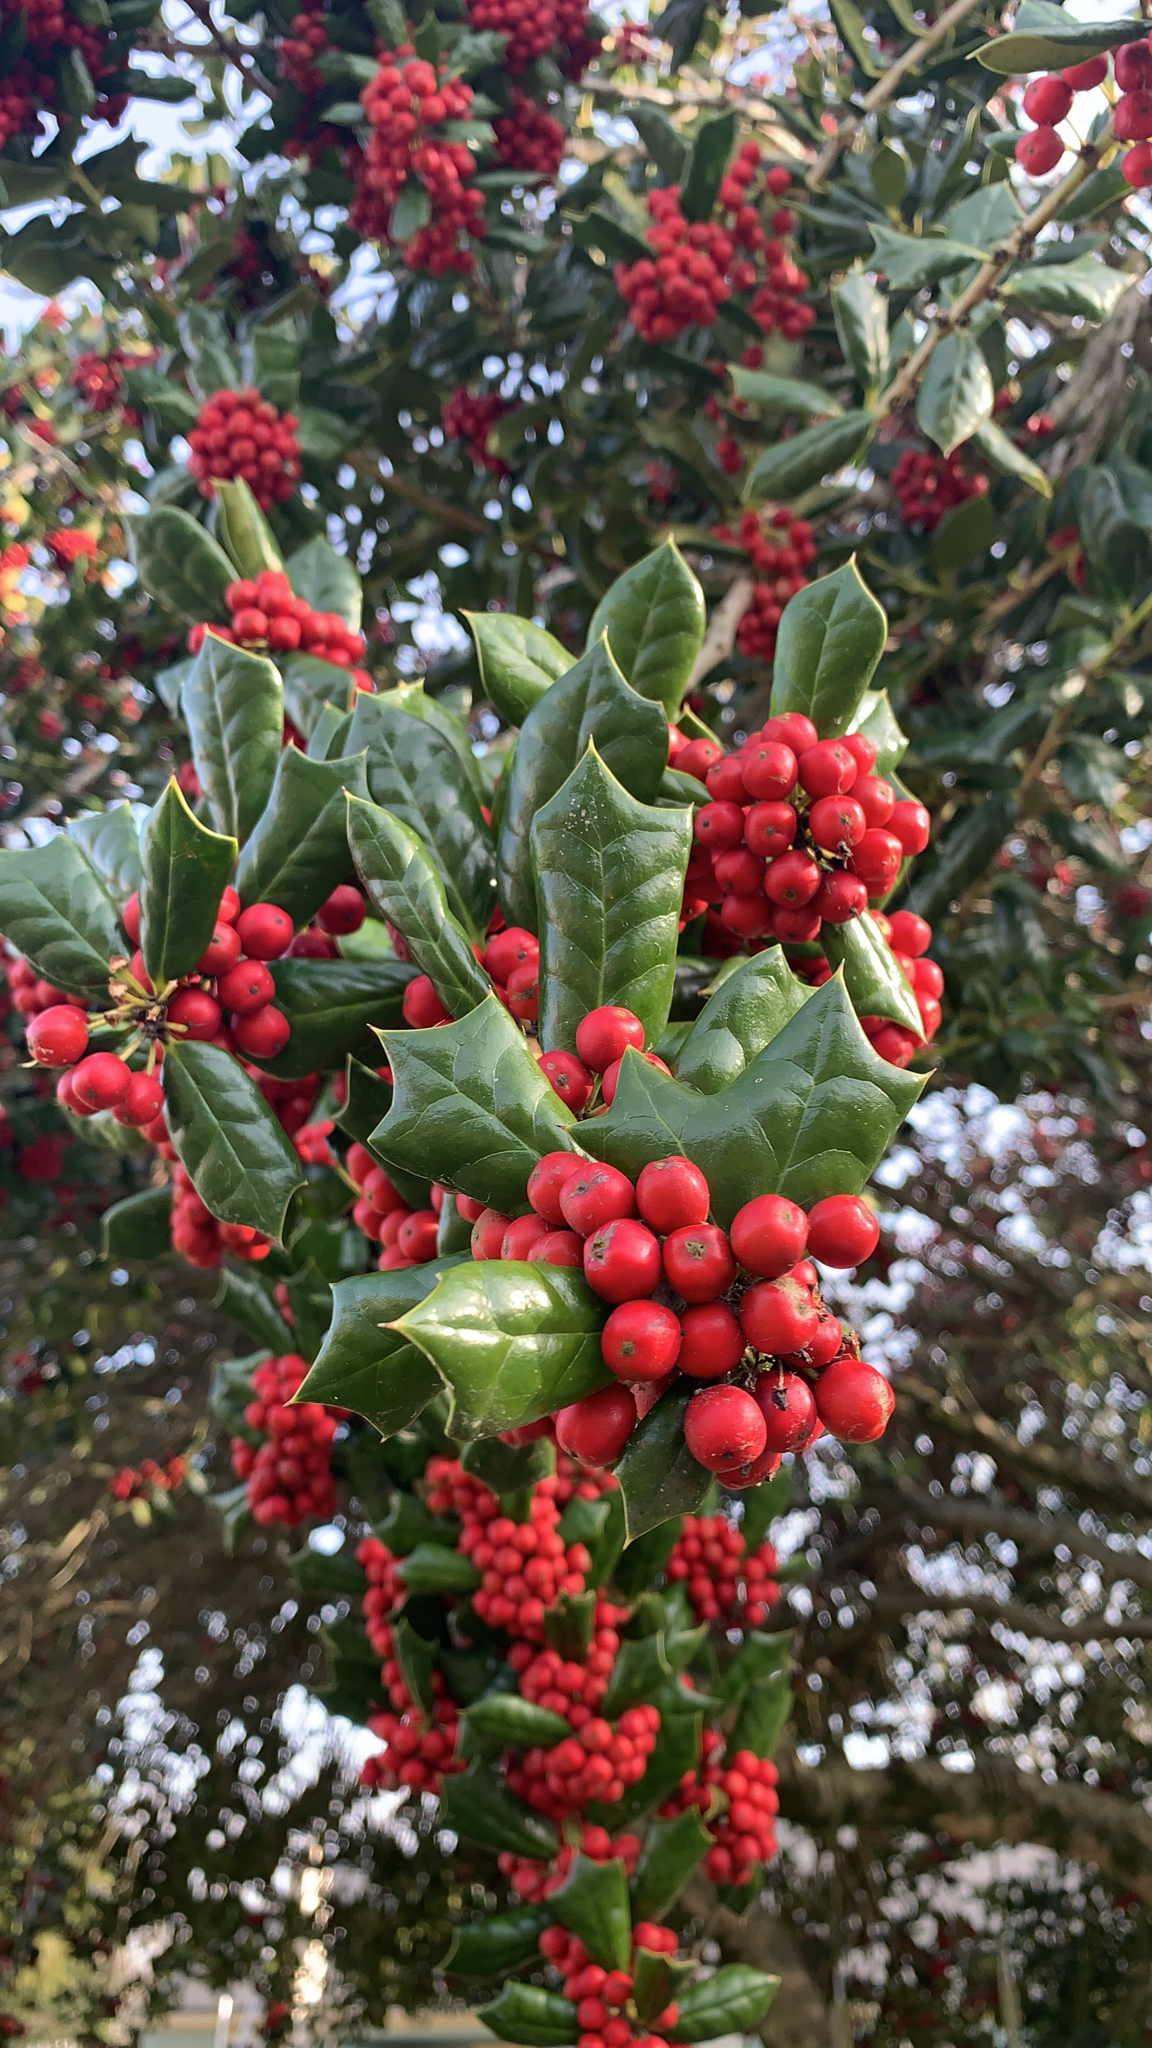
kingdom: Plantae
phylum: Tracheophyta
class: Magnoliopsida
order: Aquifoliales
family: Aquifoliaceae
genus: Ilex
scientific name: Ilex cornuta
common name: Chinese holly
